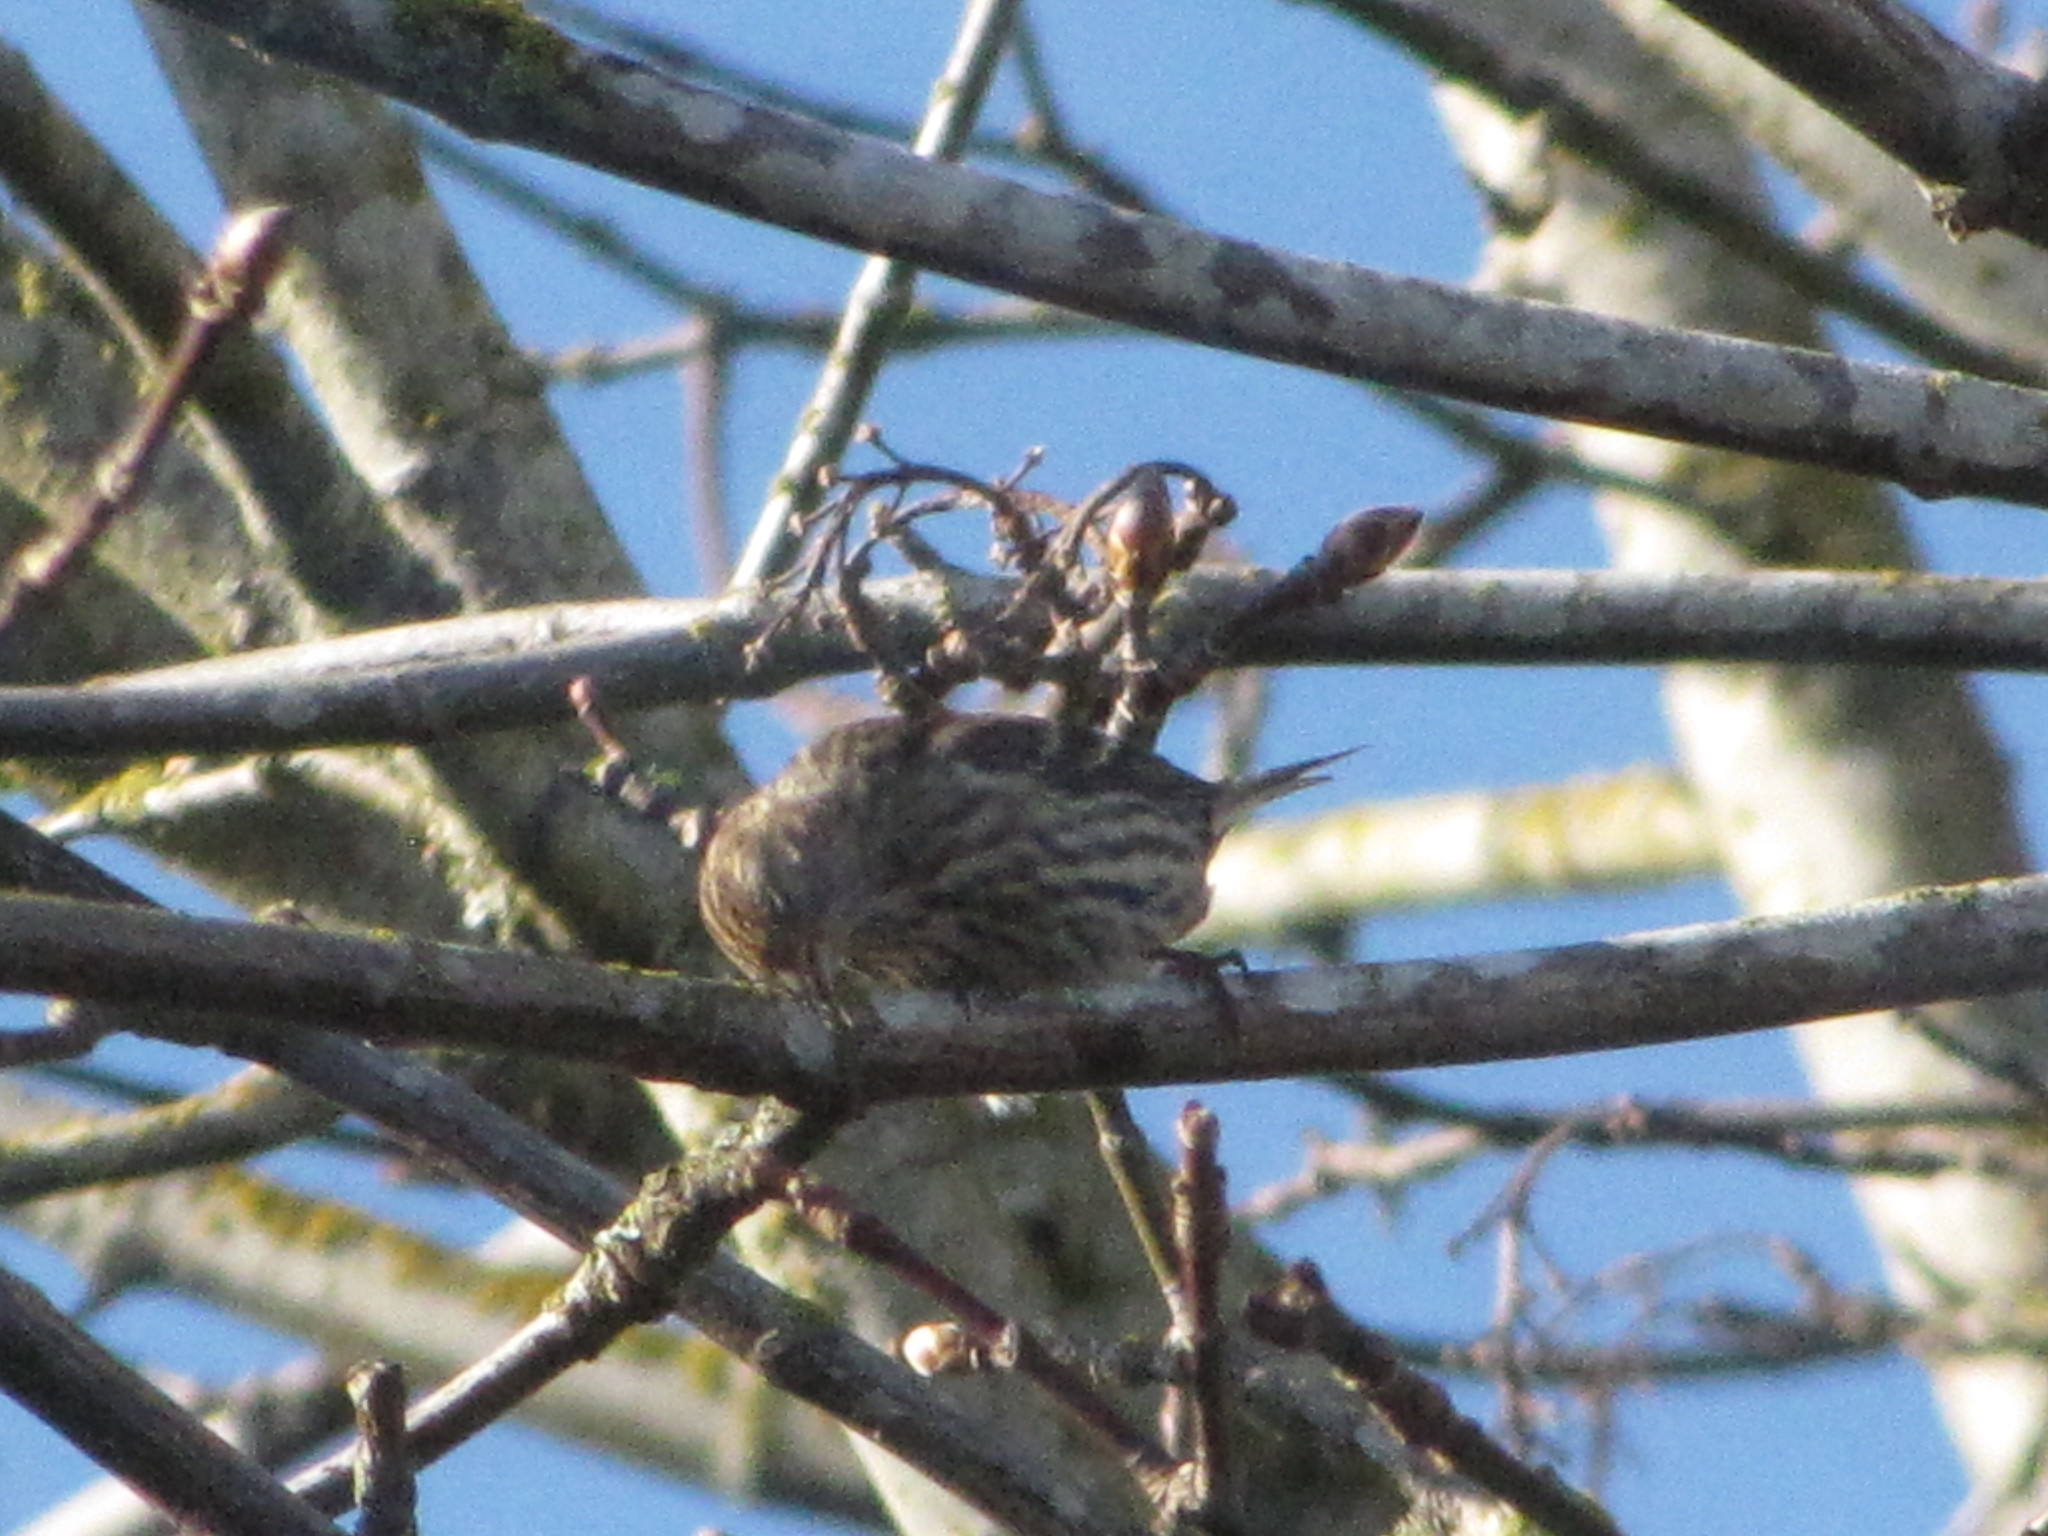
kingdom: Animalia
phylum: Chordata
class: Aves
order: Passeriformes
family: Fringillidae
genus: Spinus
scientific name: Spinus pinus
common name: Pine siskin
